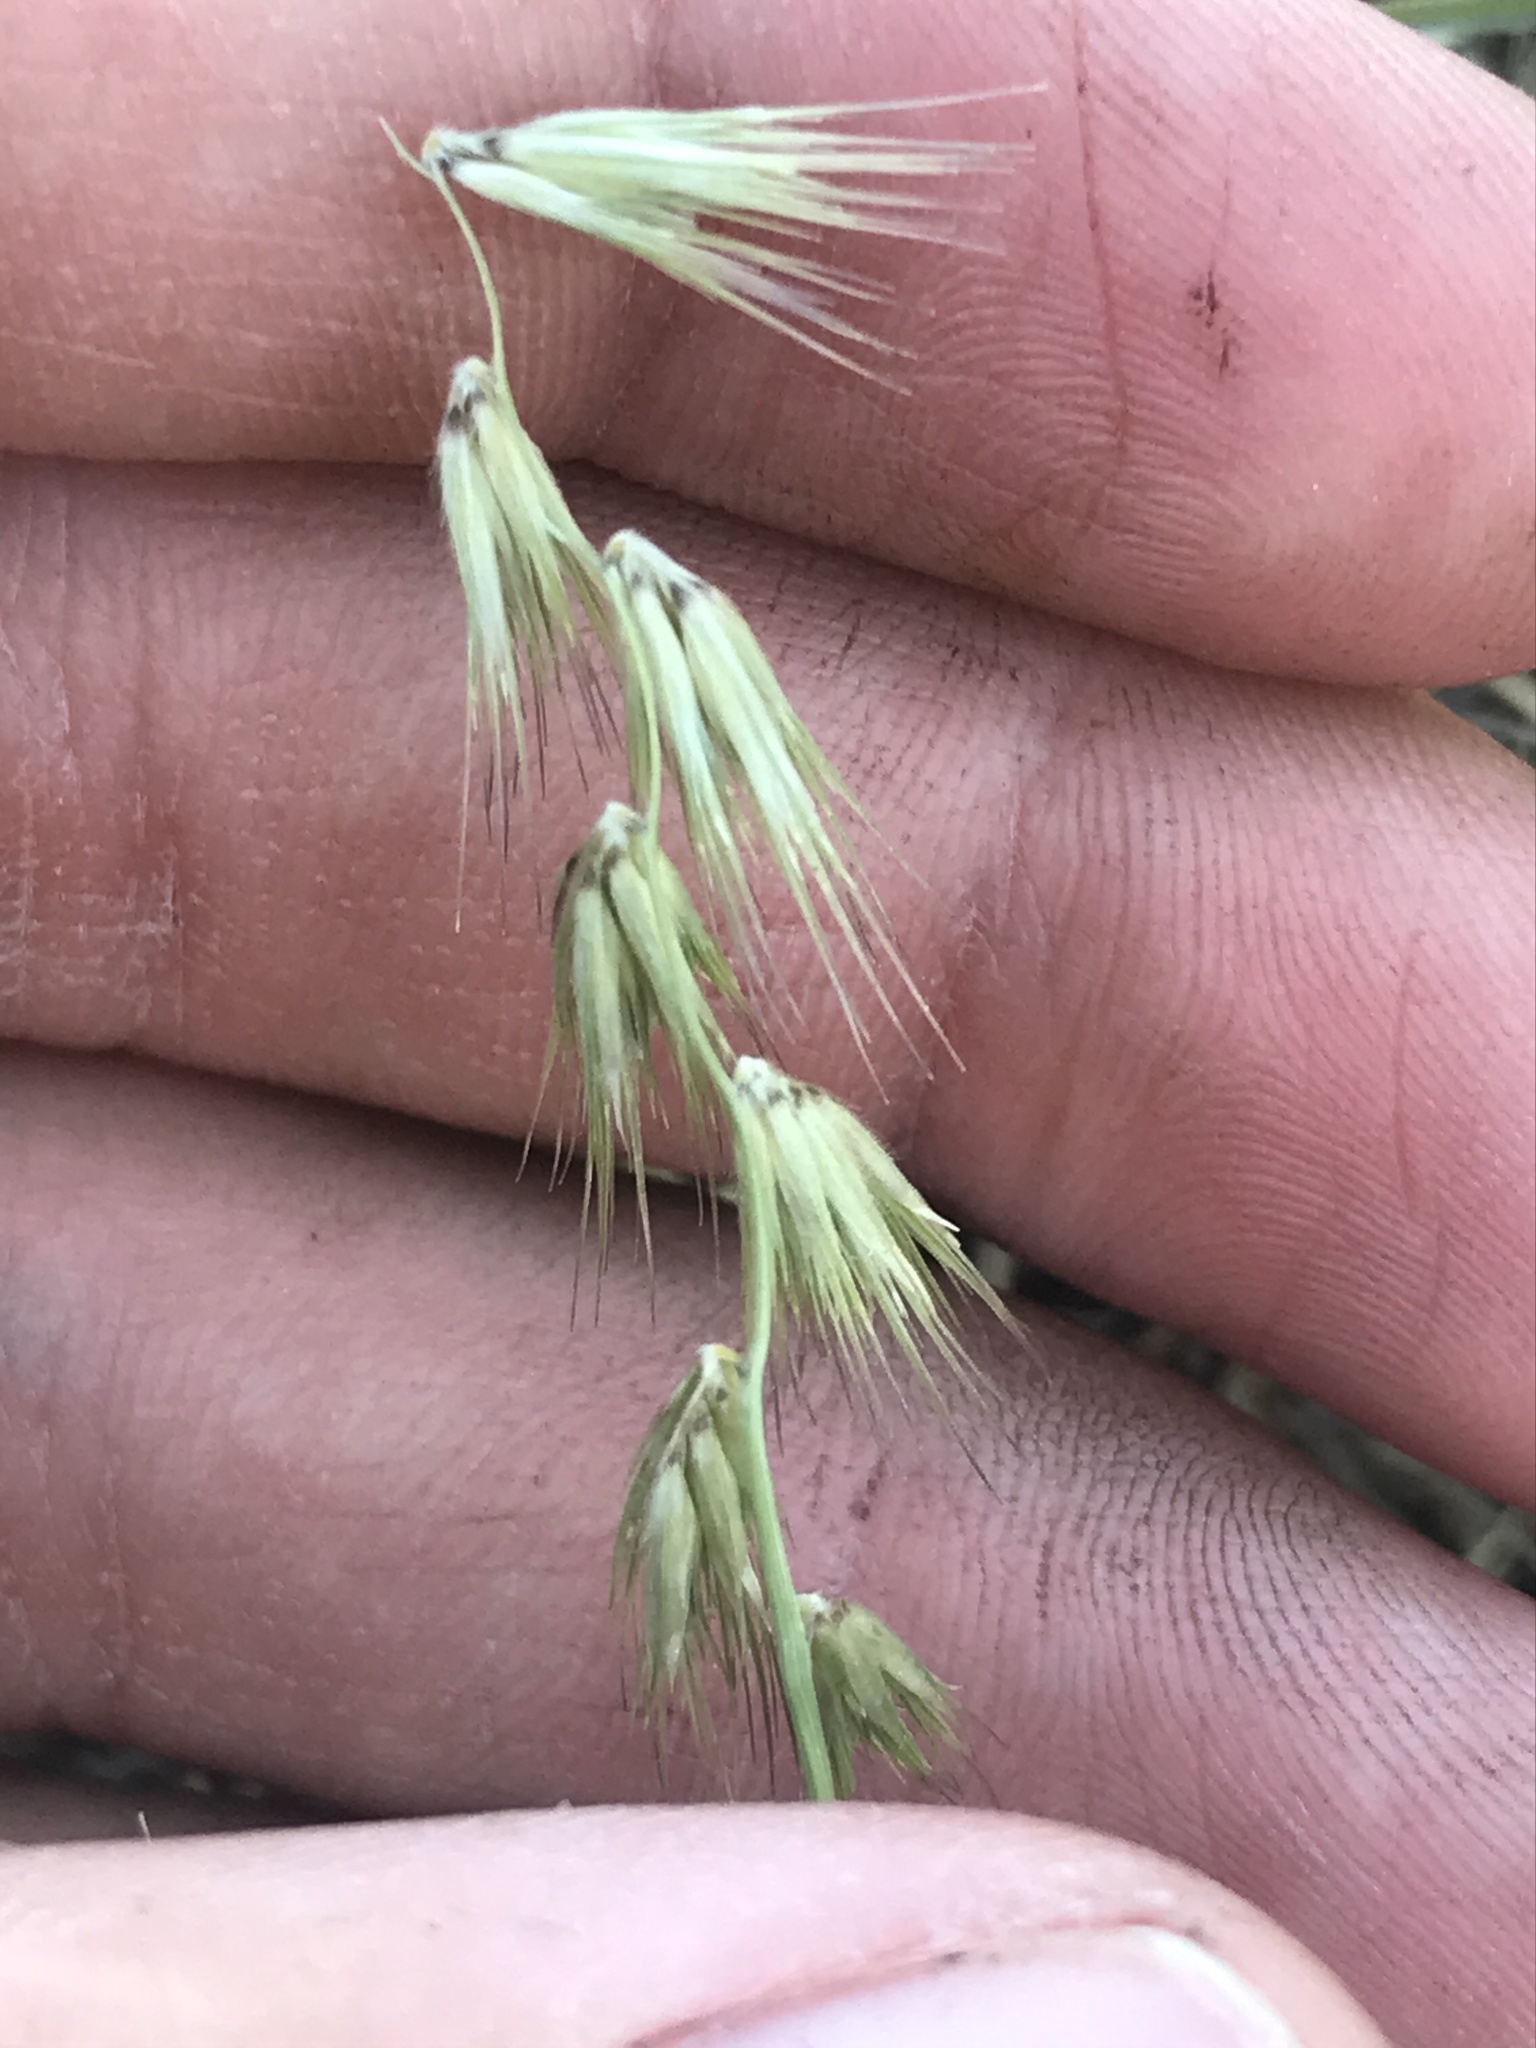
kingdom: Plantae
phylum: Tracheophyta
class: Liliopsida
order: Poales
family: Poaceae
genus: Bouteloua
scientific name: Bouteloua rigidiseta
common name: Texas grama
